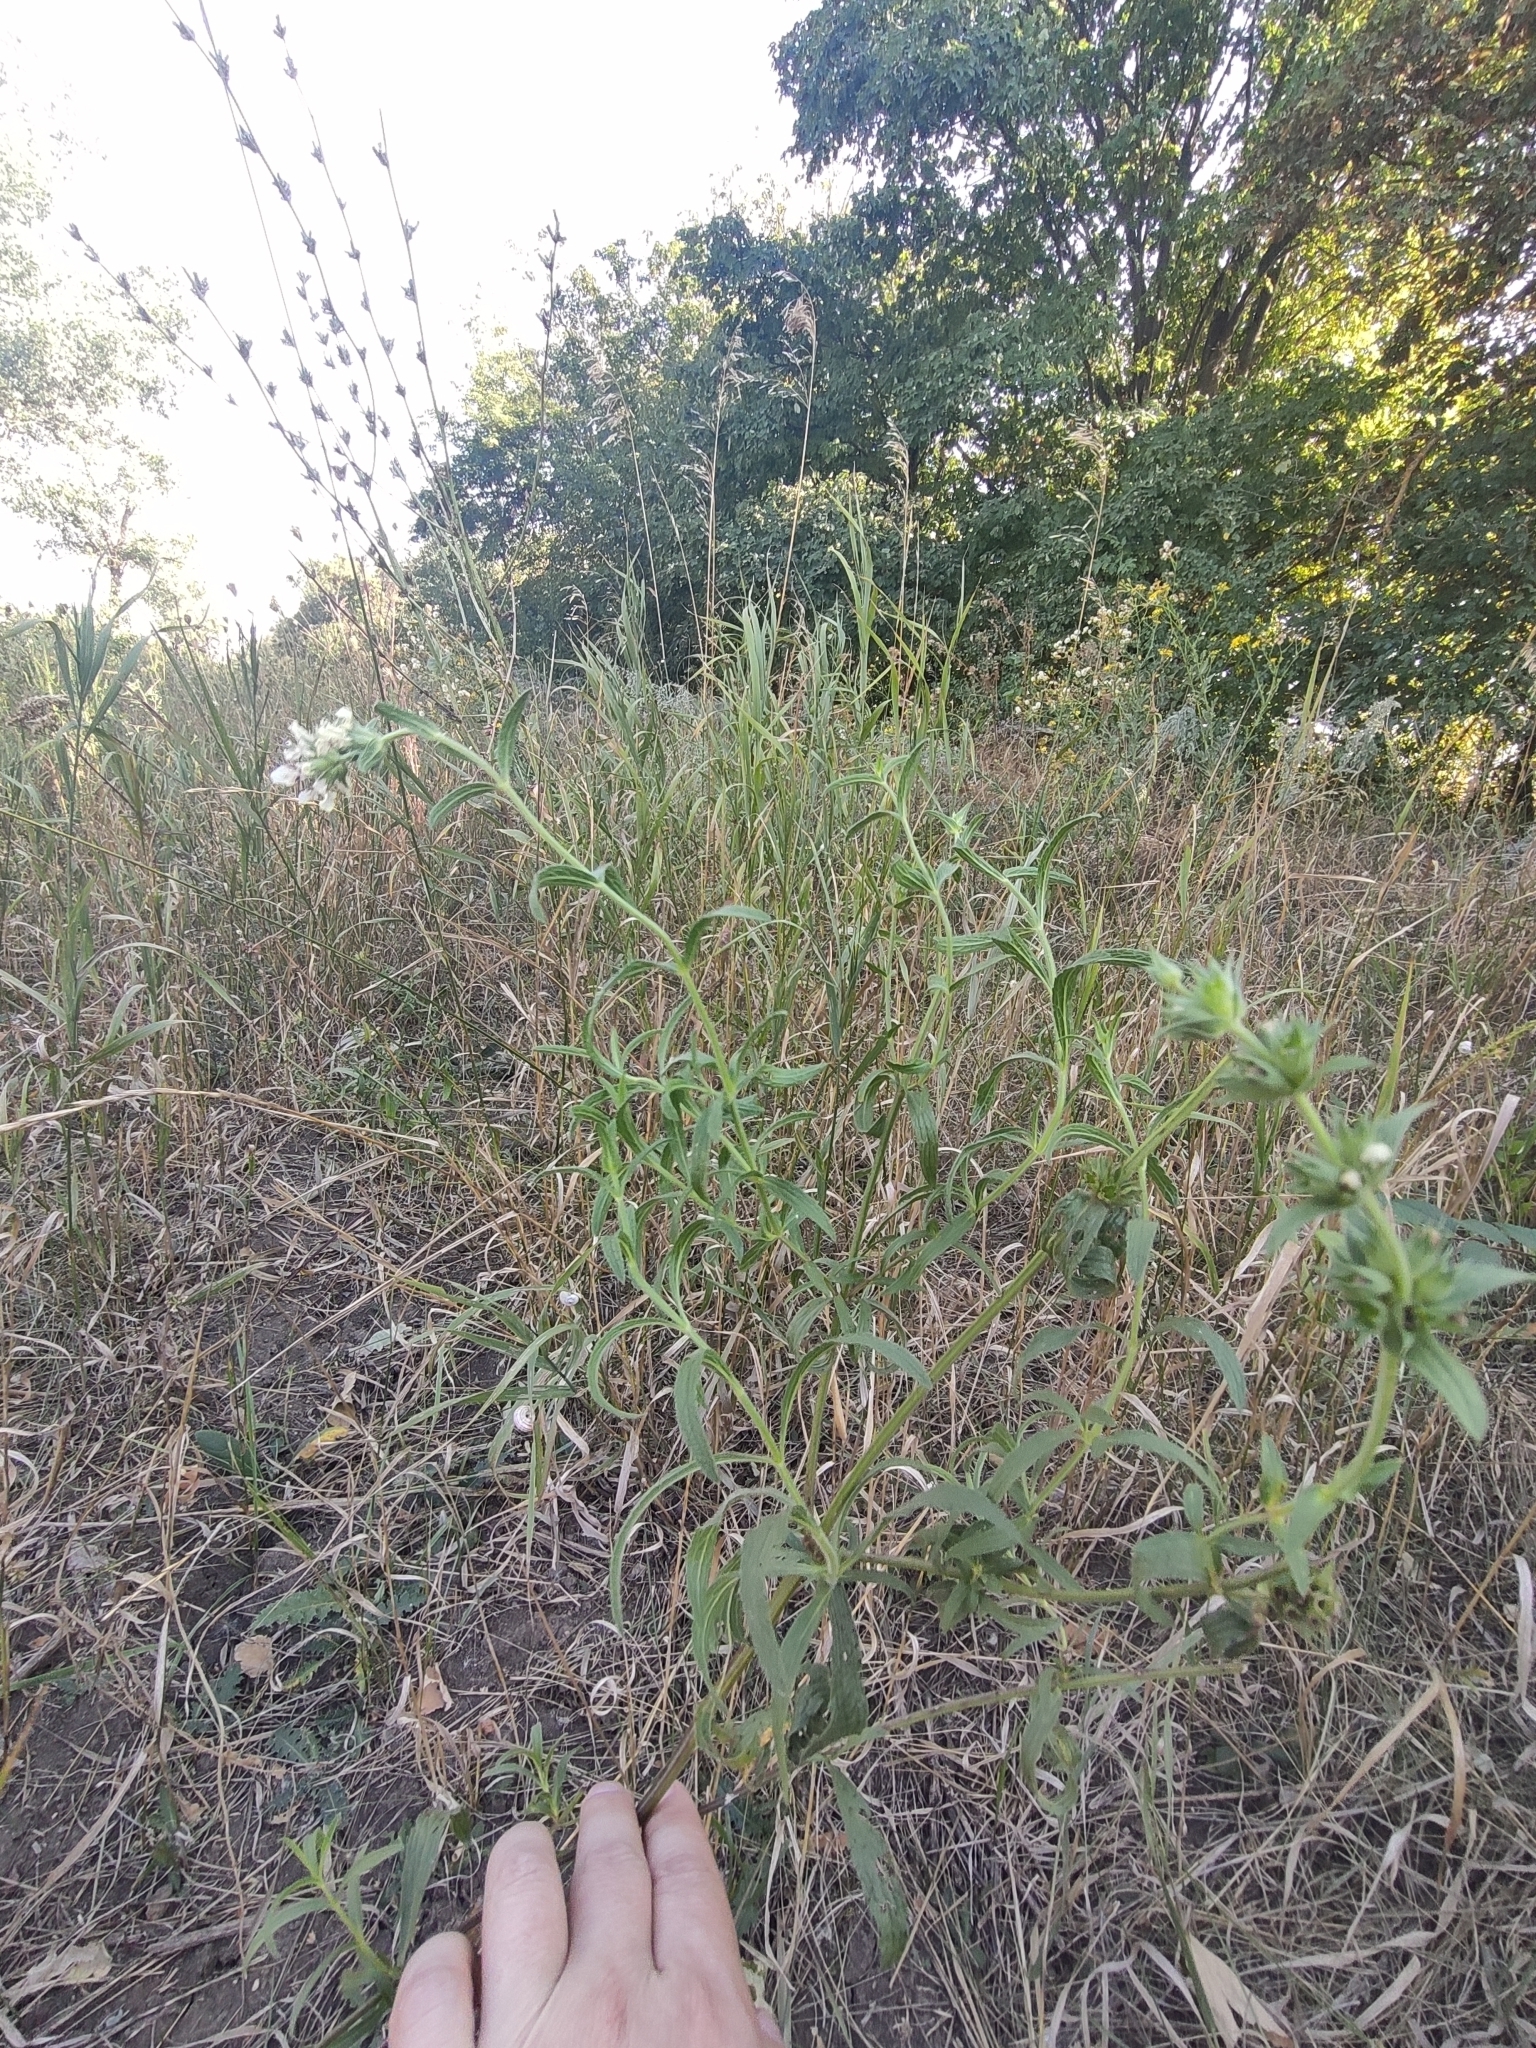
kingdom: Plantae
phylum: Tracheophyta
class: Magnoliopsida
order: Lamiales
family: Lamiaceae
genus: Stachys
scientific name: Stachys annua
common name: Annual yellow-woundwort
